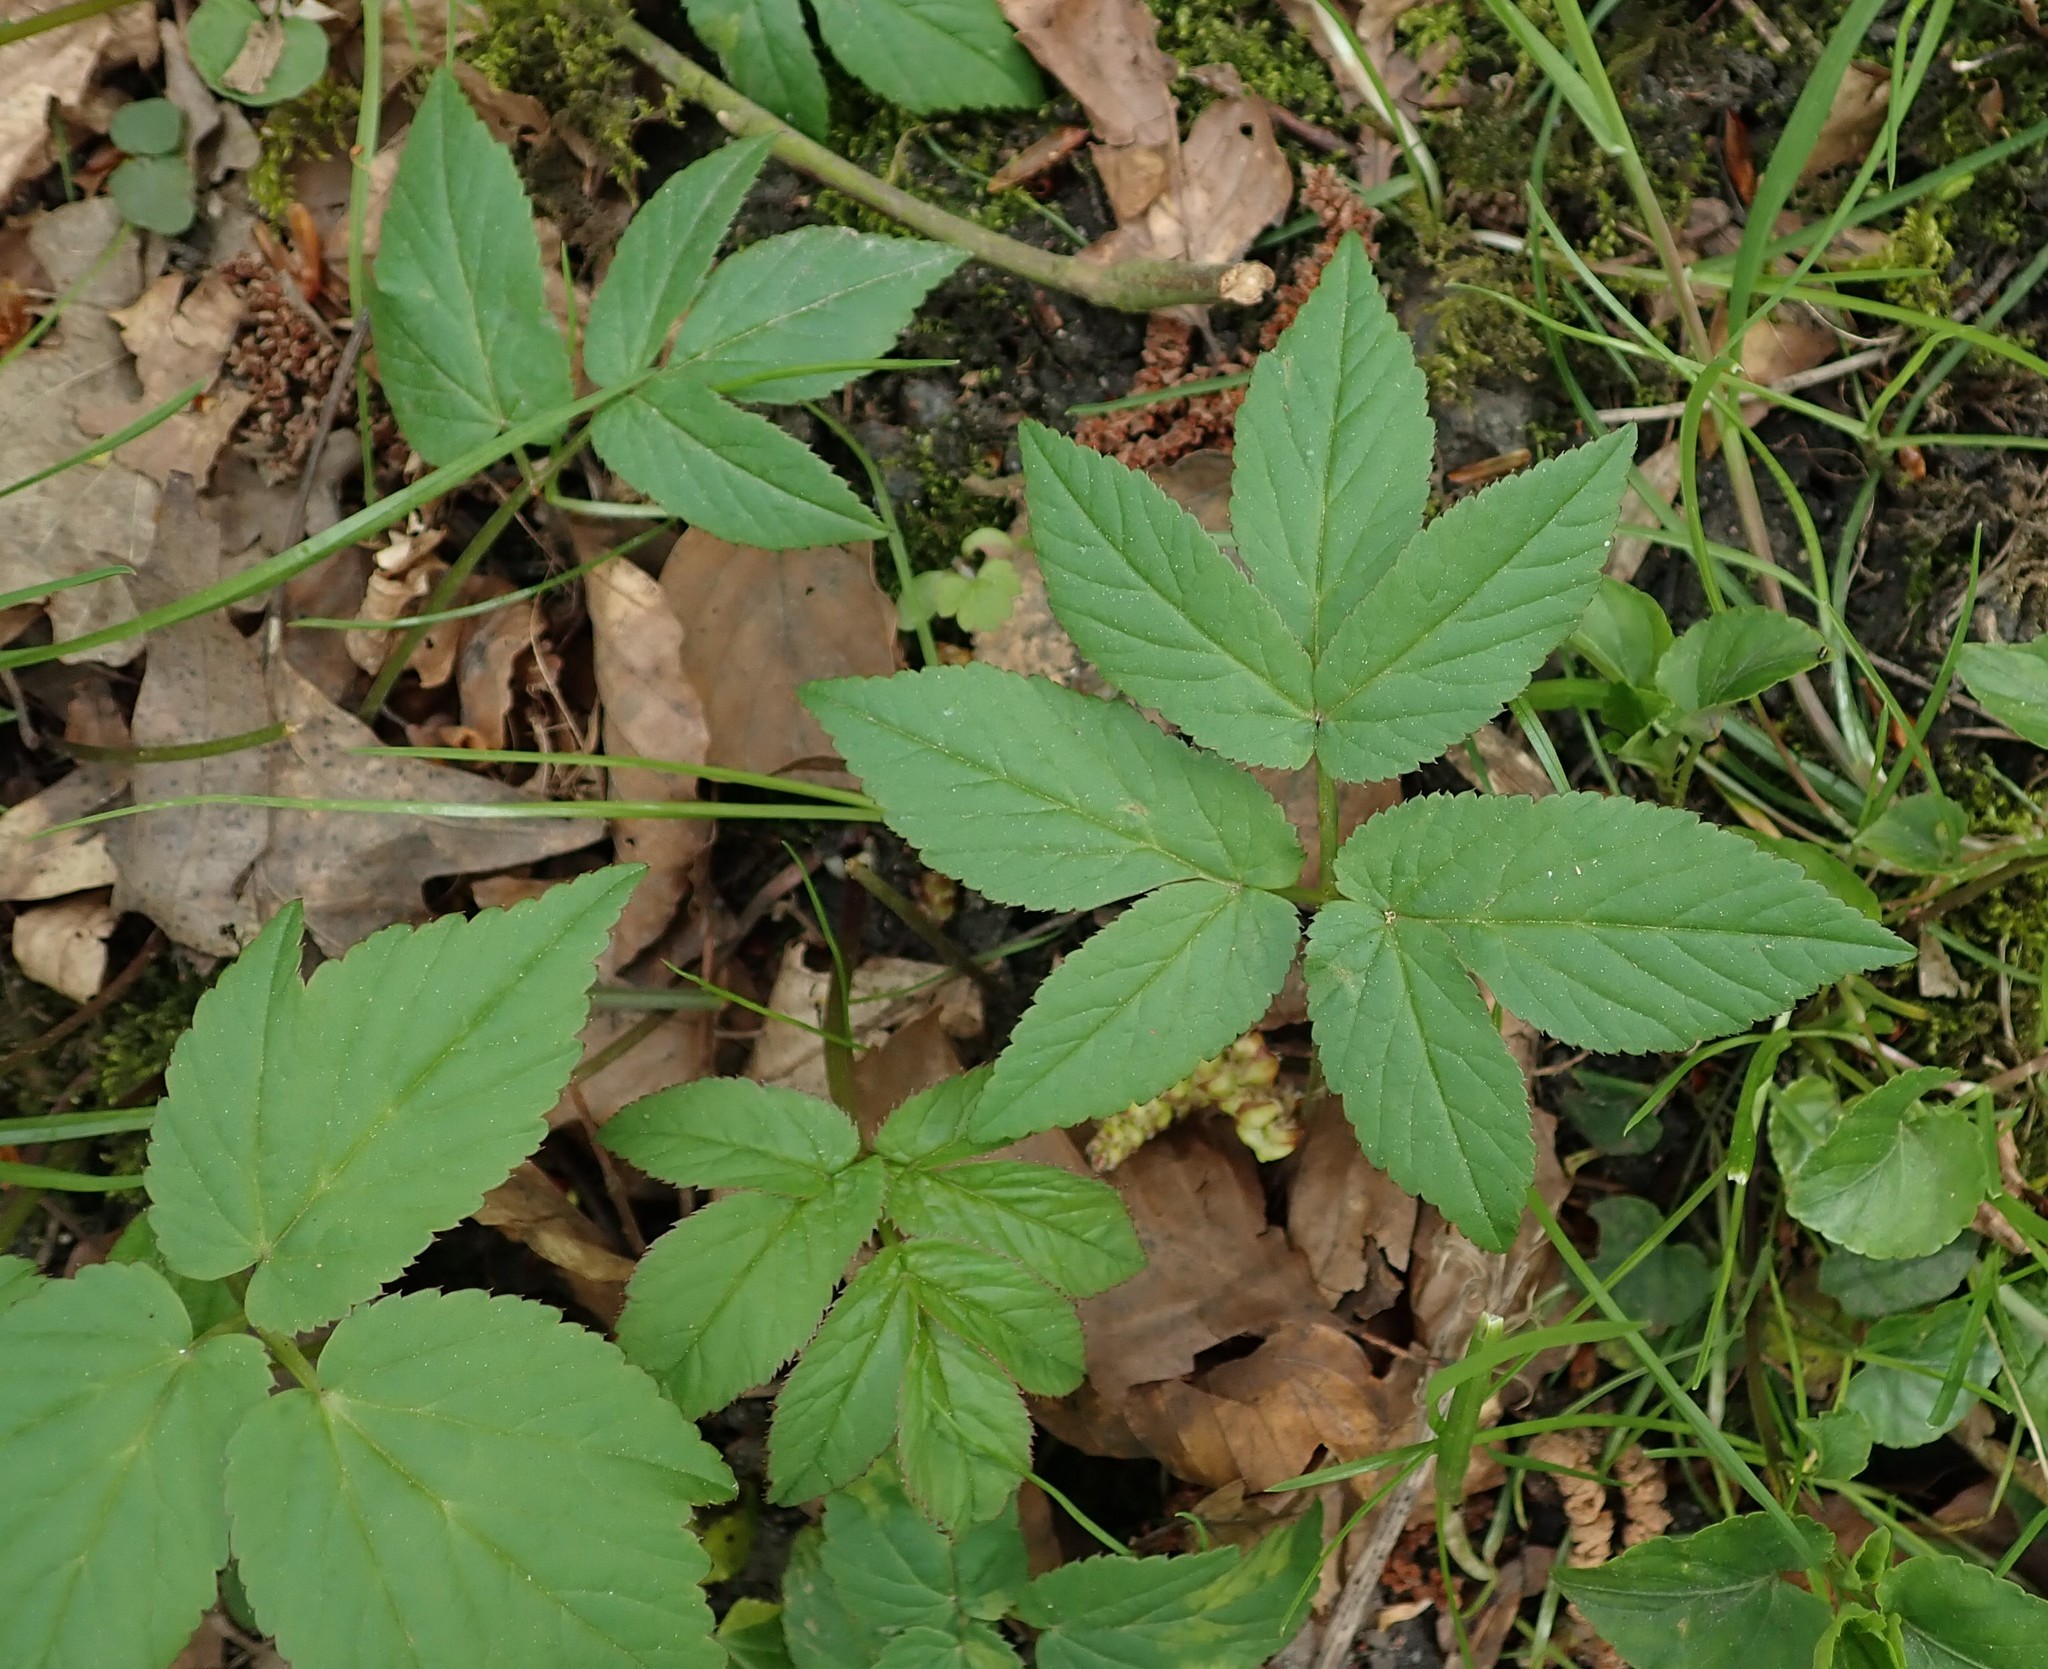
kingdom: Plantae
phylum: Tracheophyta
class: Magnoliopsida
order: Apiales
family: Apiaceae
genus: Aegopodium
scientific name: Aegopodium podagraria
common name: Ground-elder
